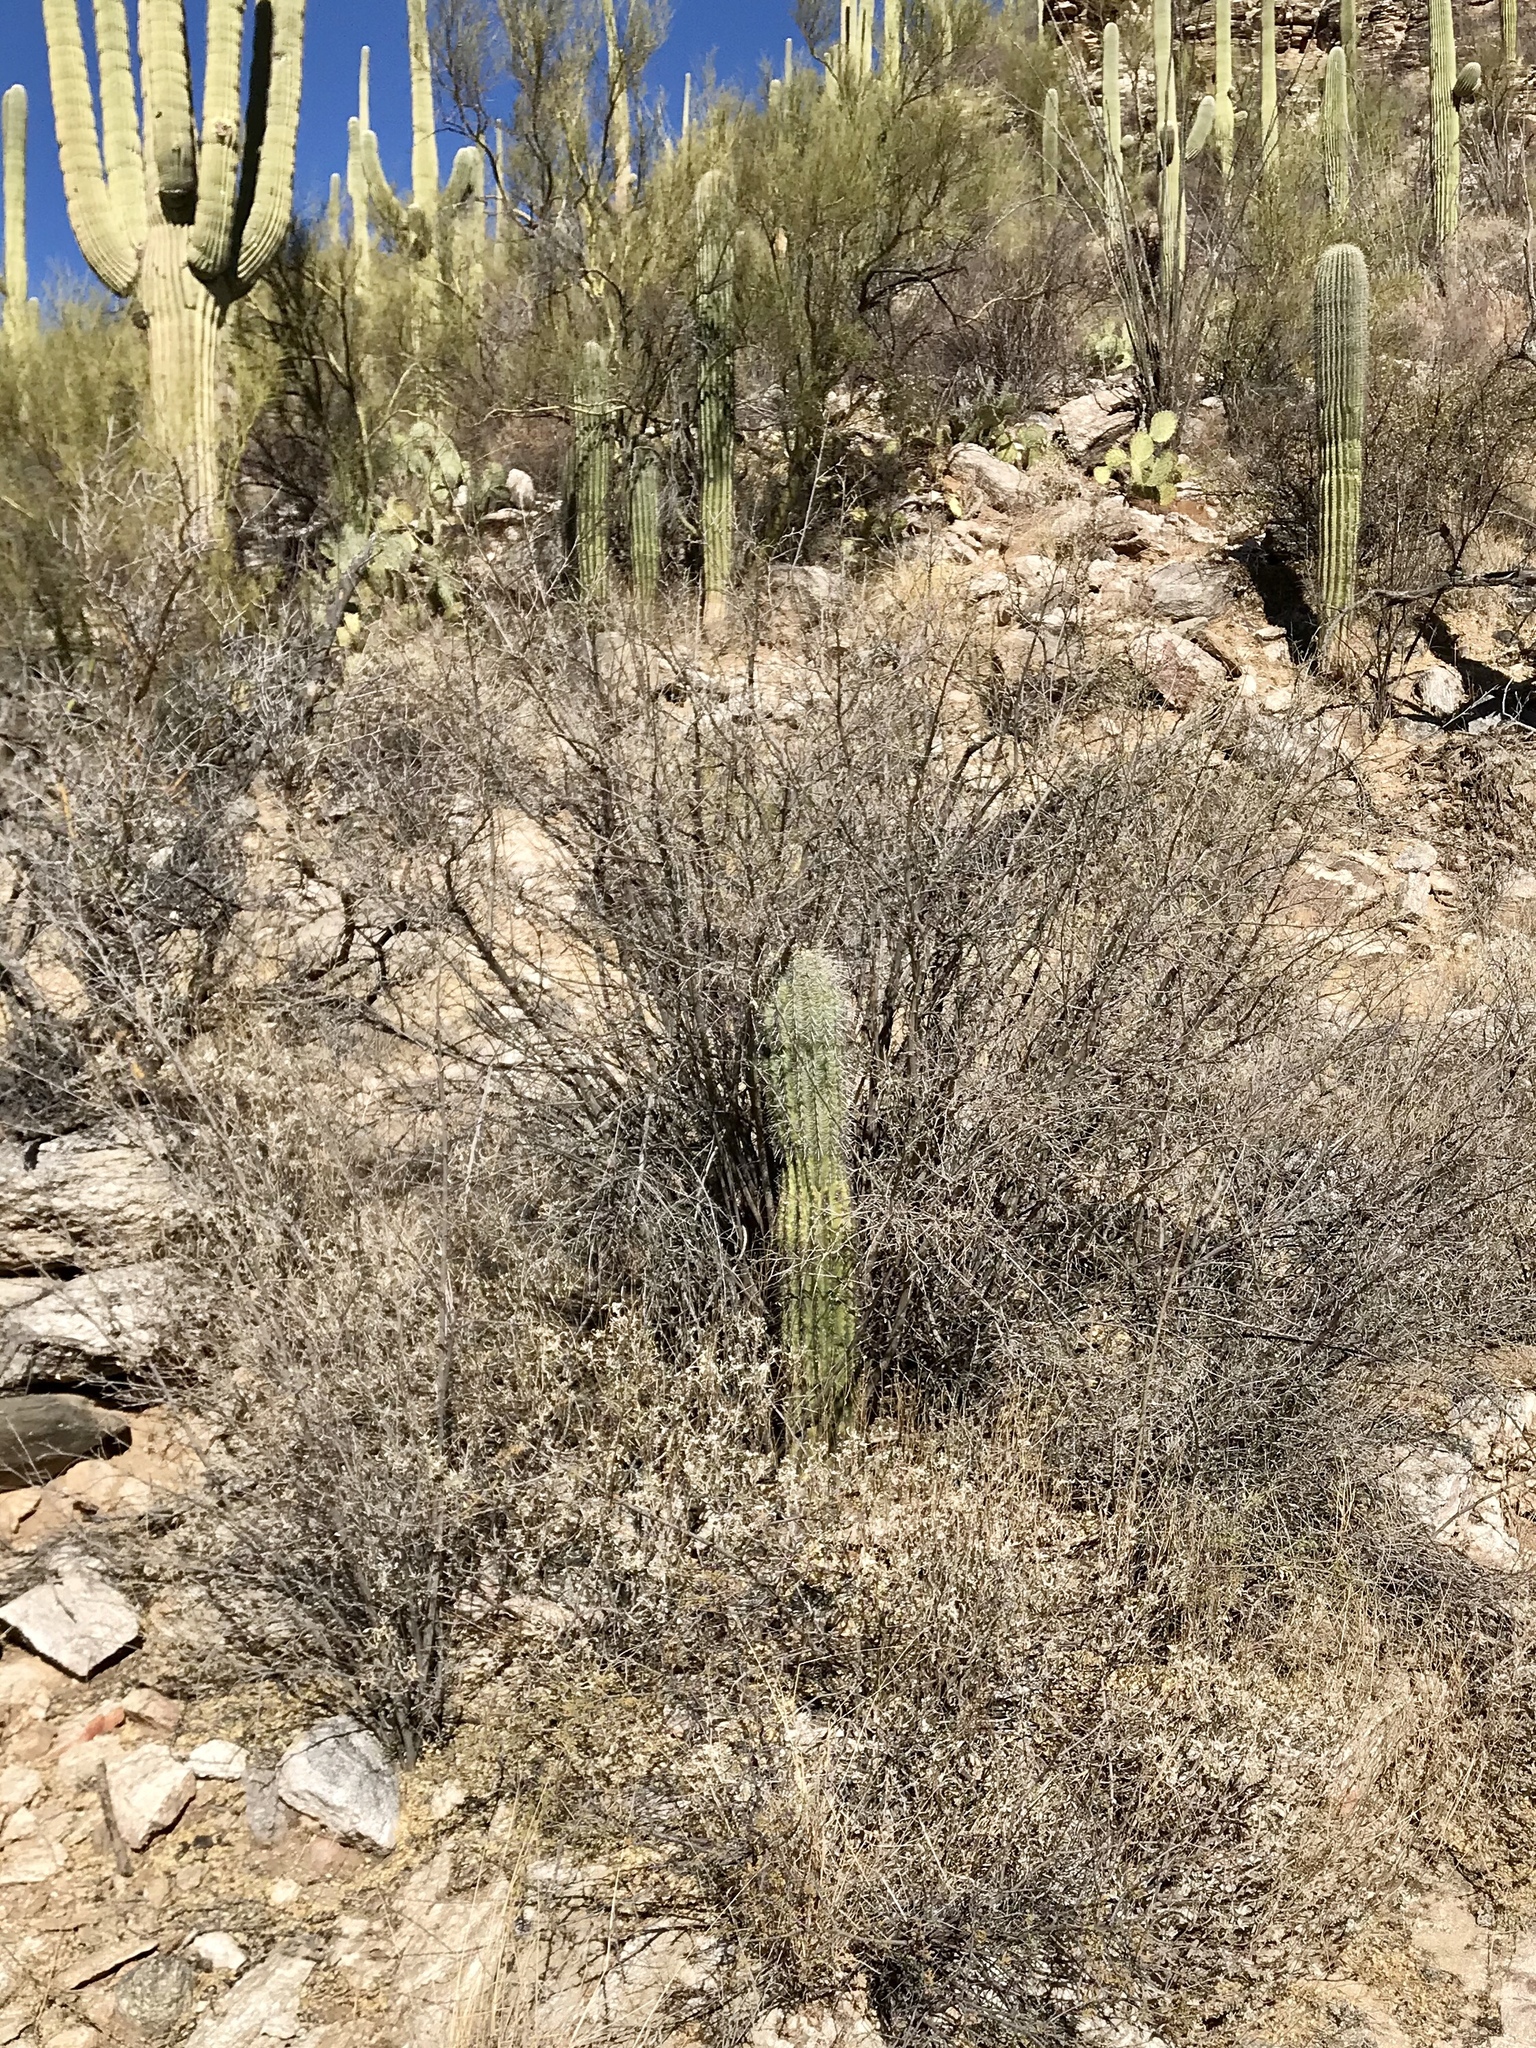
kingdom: Plantae
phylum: Tracheophyta
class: Magnoliopsida
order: Caryophyllales
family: Cactaceae
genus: Carnegiea
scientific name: Carnegiea gigantea
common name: Saguaro
